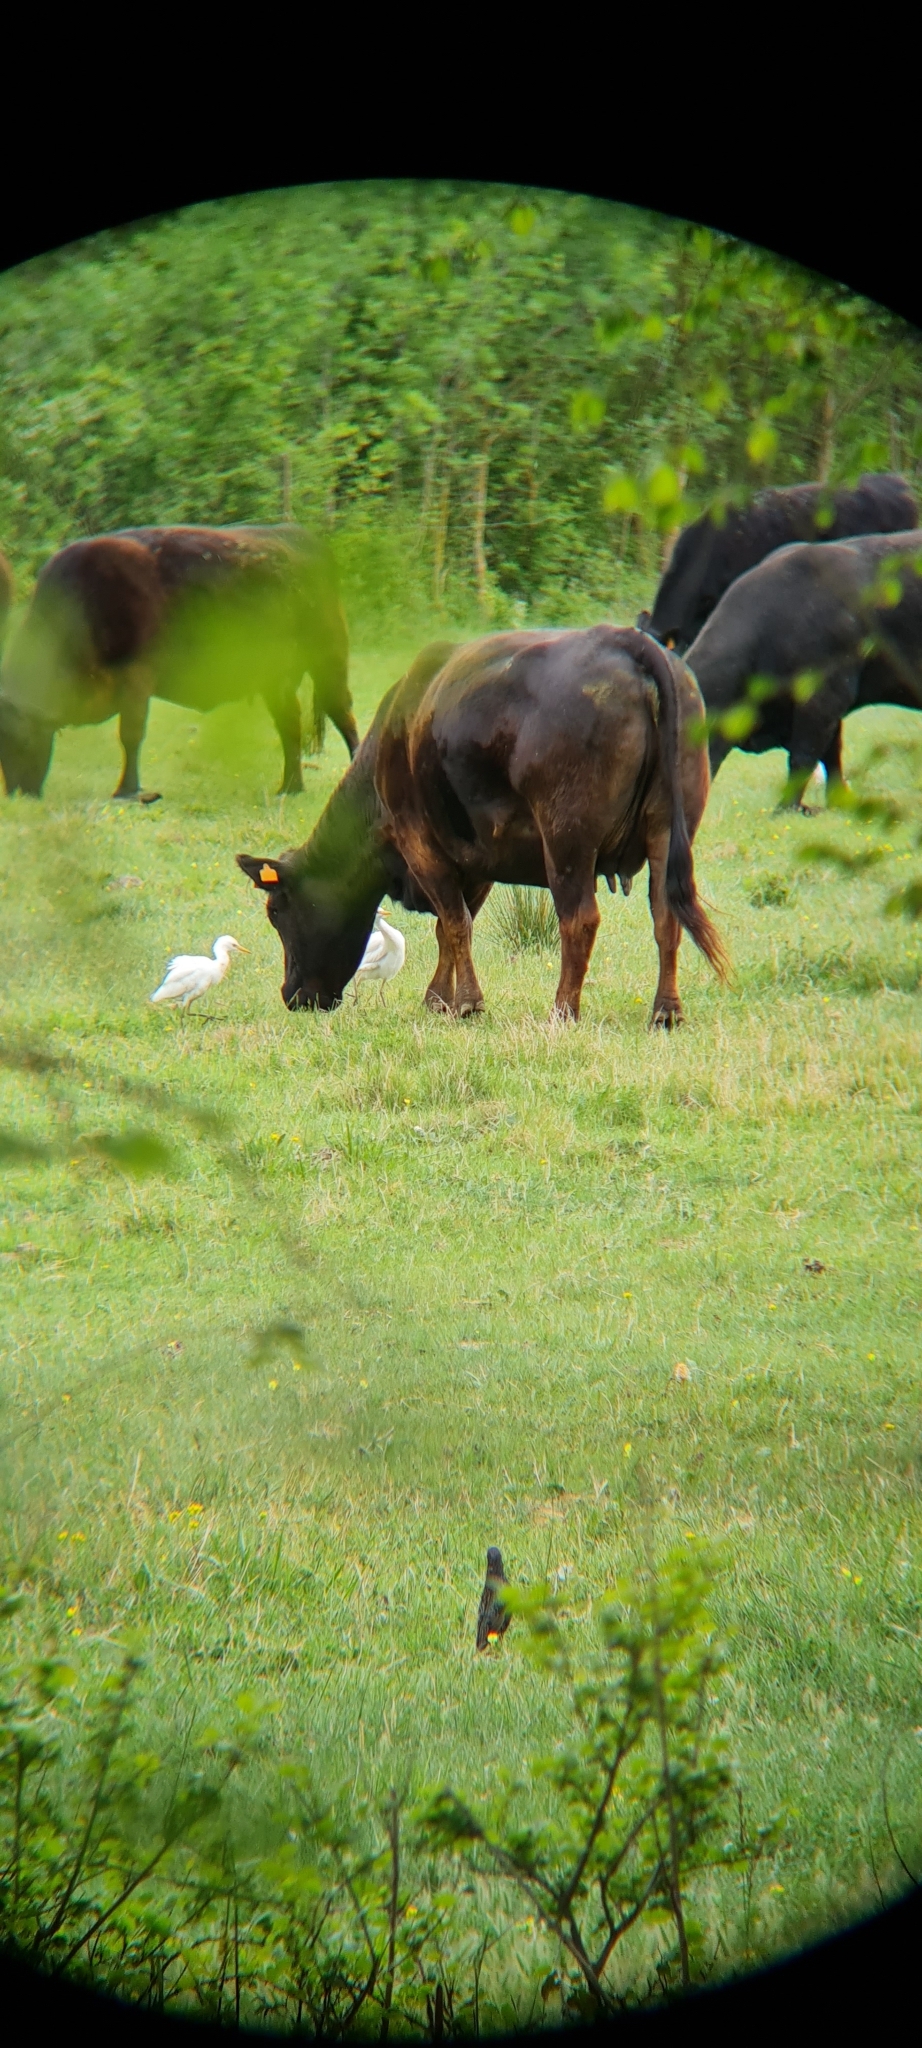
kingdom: Animalia
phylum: Chordata
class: Aves
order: Pelecaniformes
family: Ardeidae
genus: Bubulcus
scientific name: Bubulcus ibis
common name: Cattle egret
